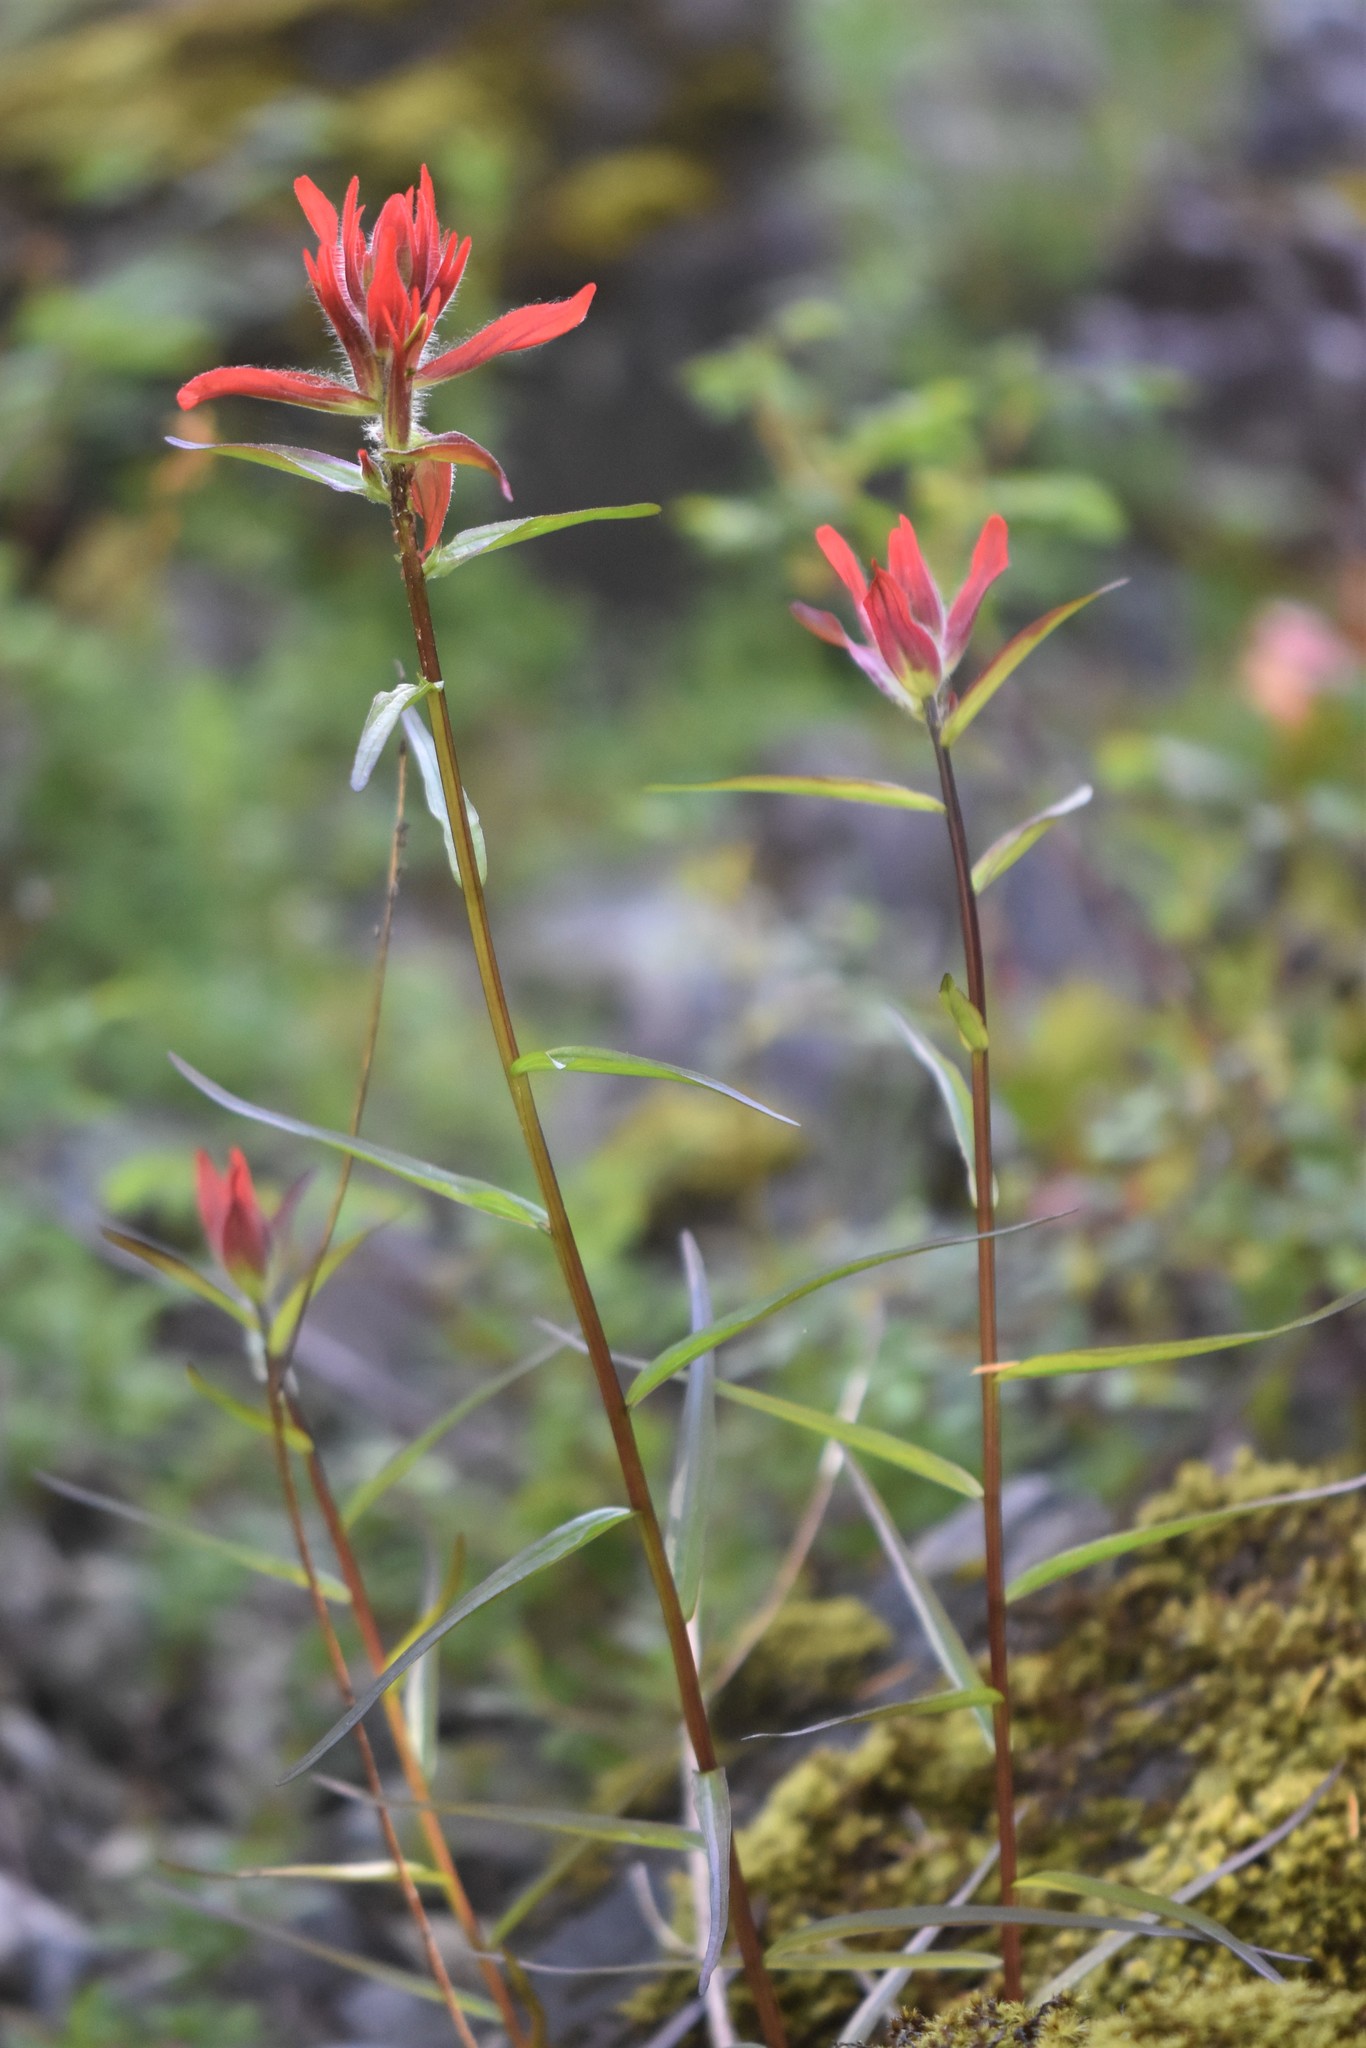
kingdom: Plantae
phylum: Tracheophyta
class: Magnoliopsida
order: Lamiales
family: Orobanchaceae
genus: Castilleja
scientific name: Castilleja miniata
